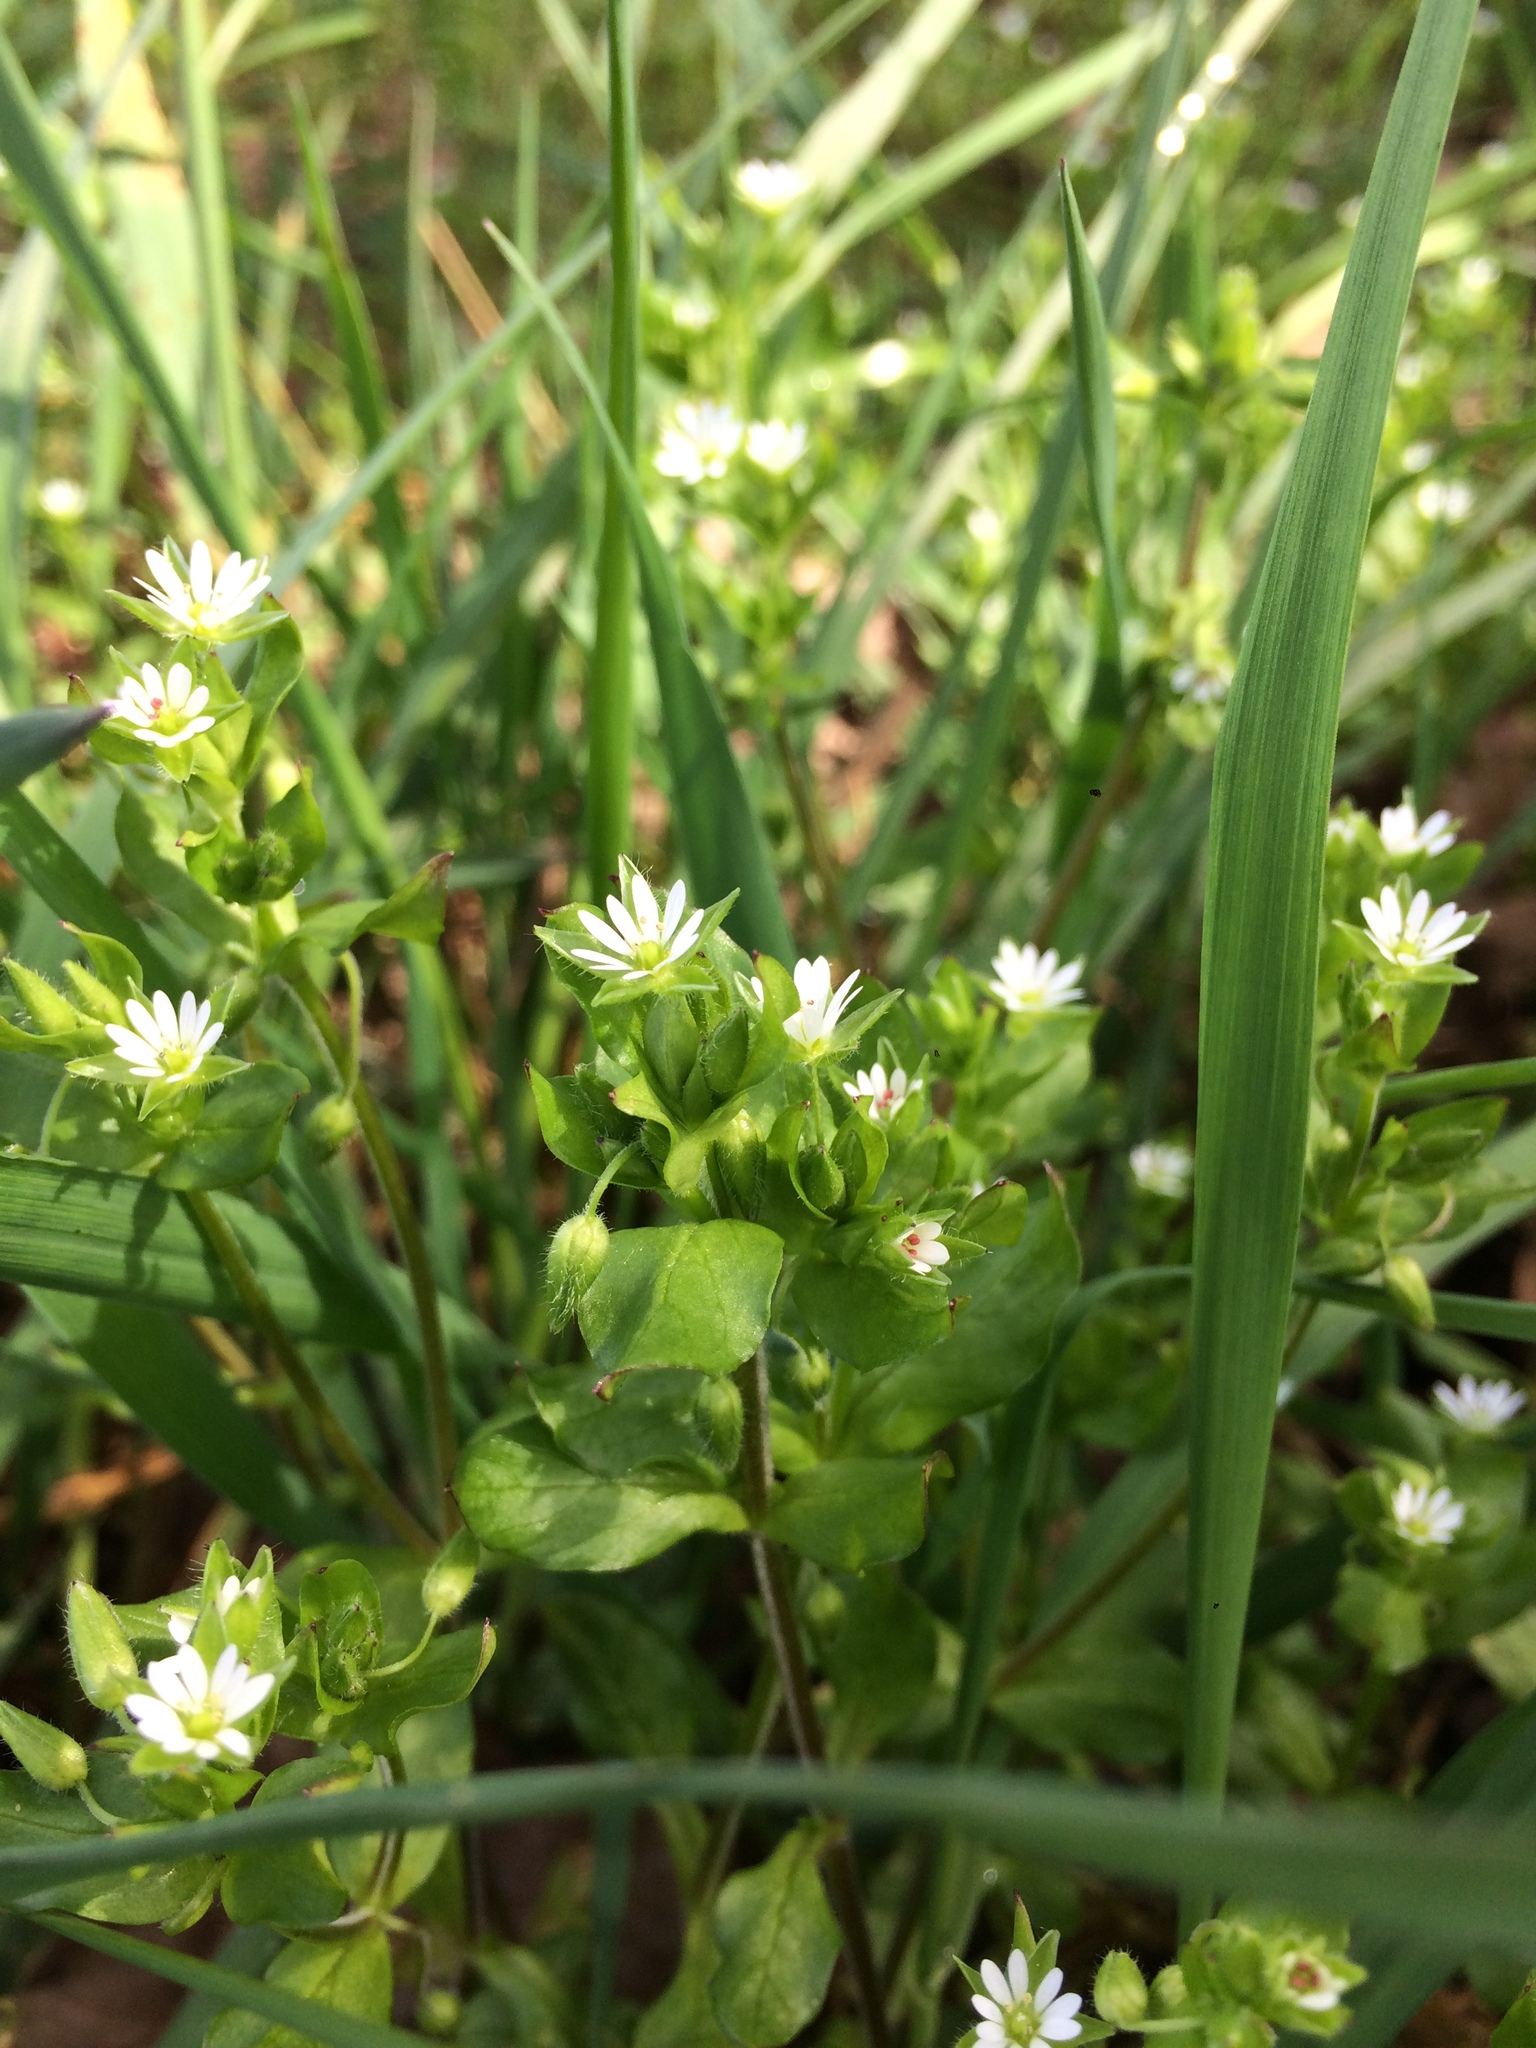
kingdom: Plantae
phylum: Tracheophyta
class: Magnoliopsida
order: Caryophyllales
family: Caryophyllaceae
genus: Stellaria
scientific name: Stellaria media
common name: Common chickweed
